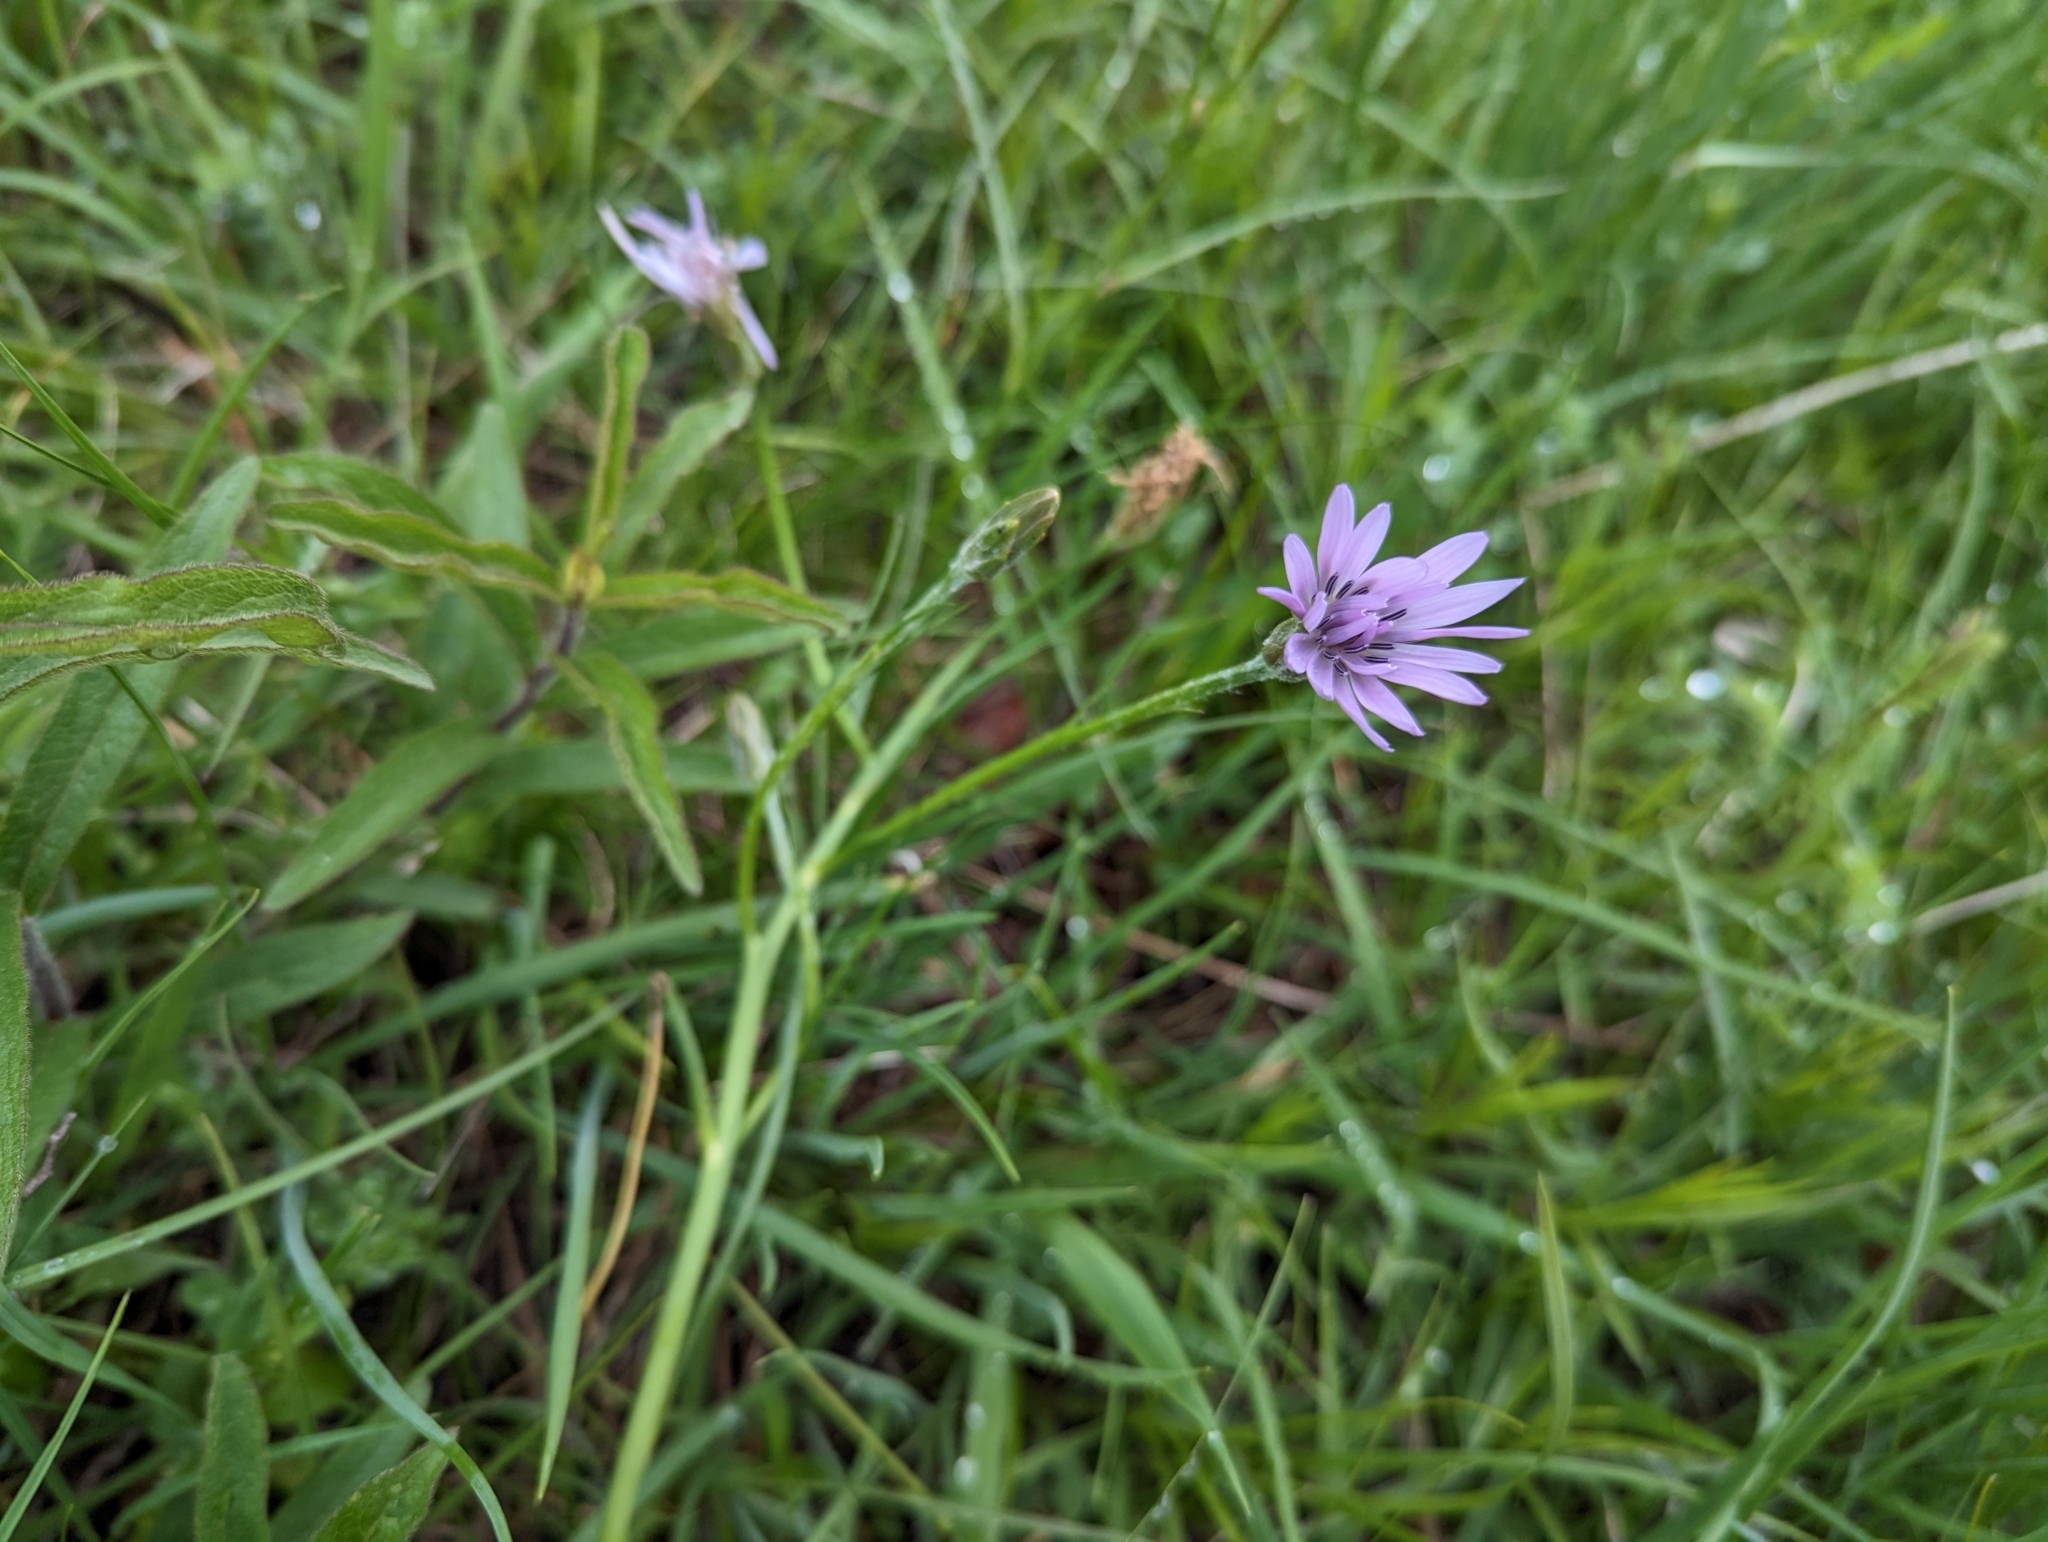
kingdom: Plantae
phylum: Tracheophyta
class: Magnoliopsida
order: Asterales
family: Asteraceae
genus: Scorzonera
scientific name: Scorzonera purpurea
